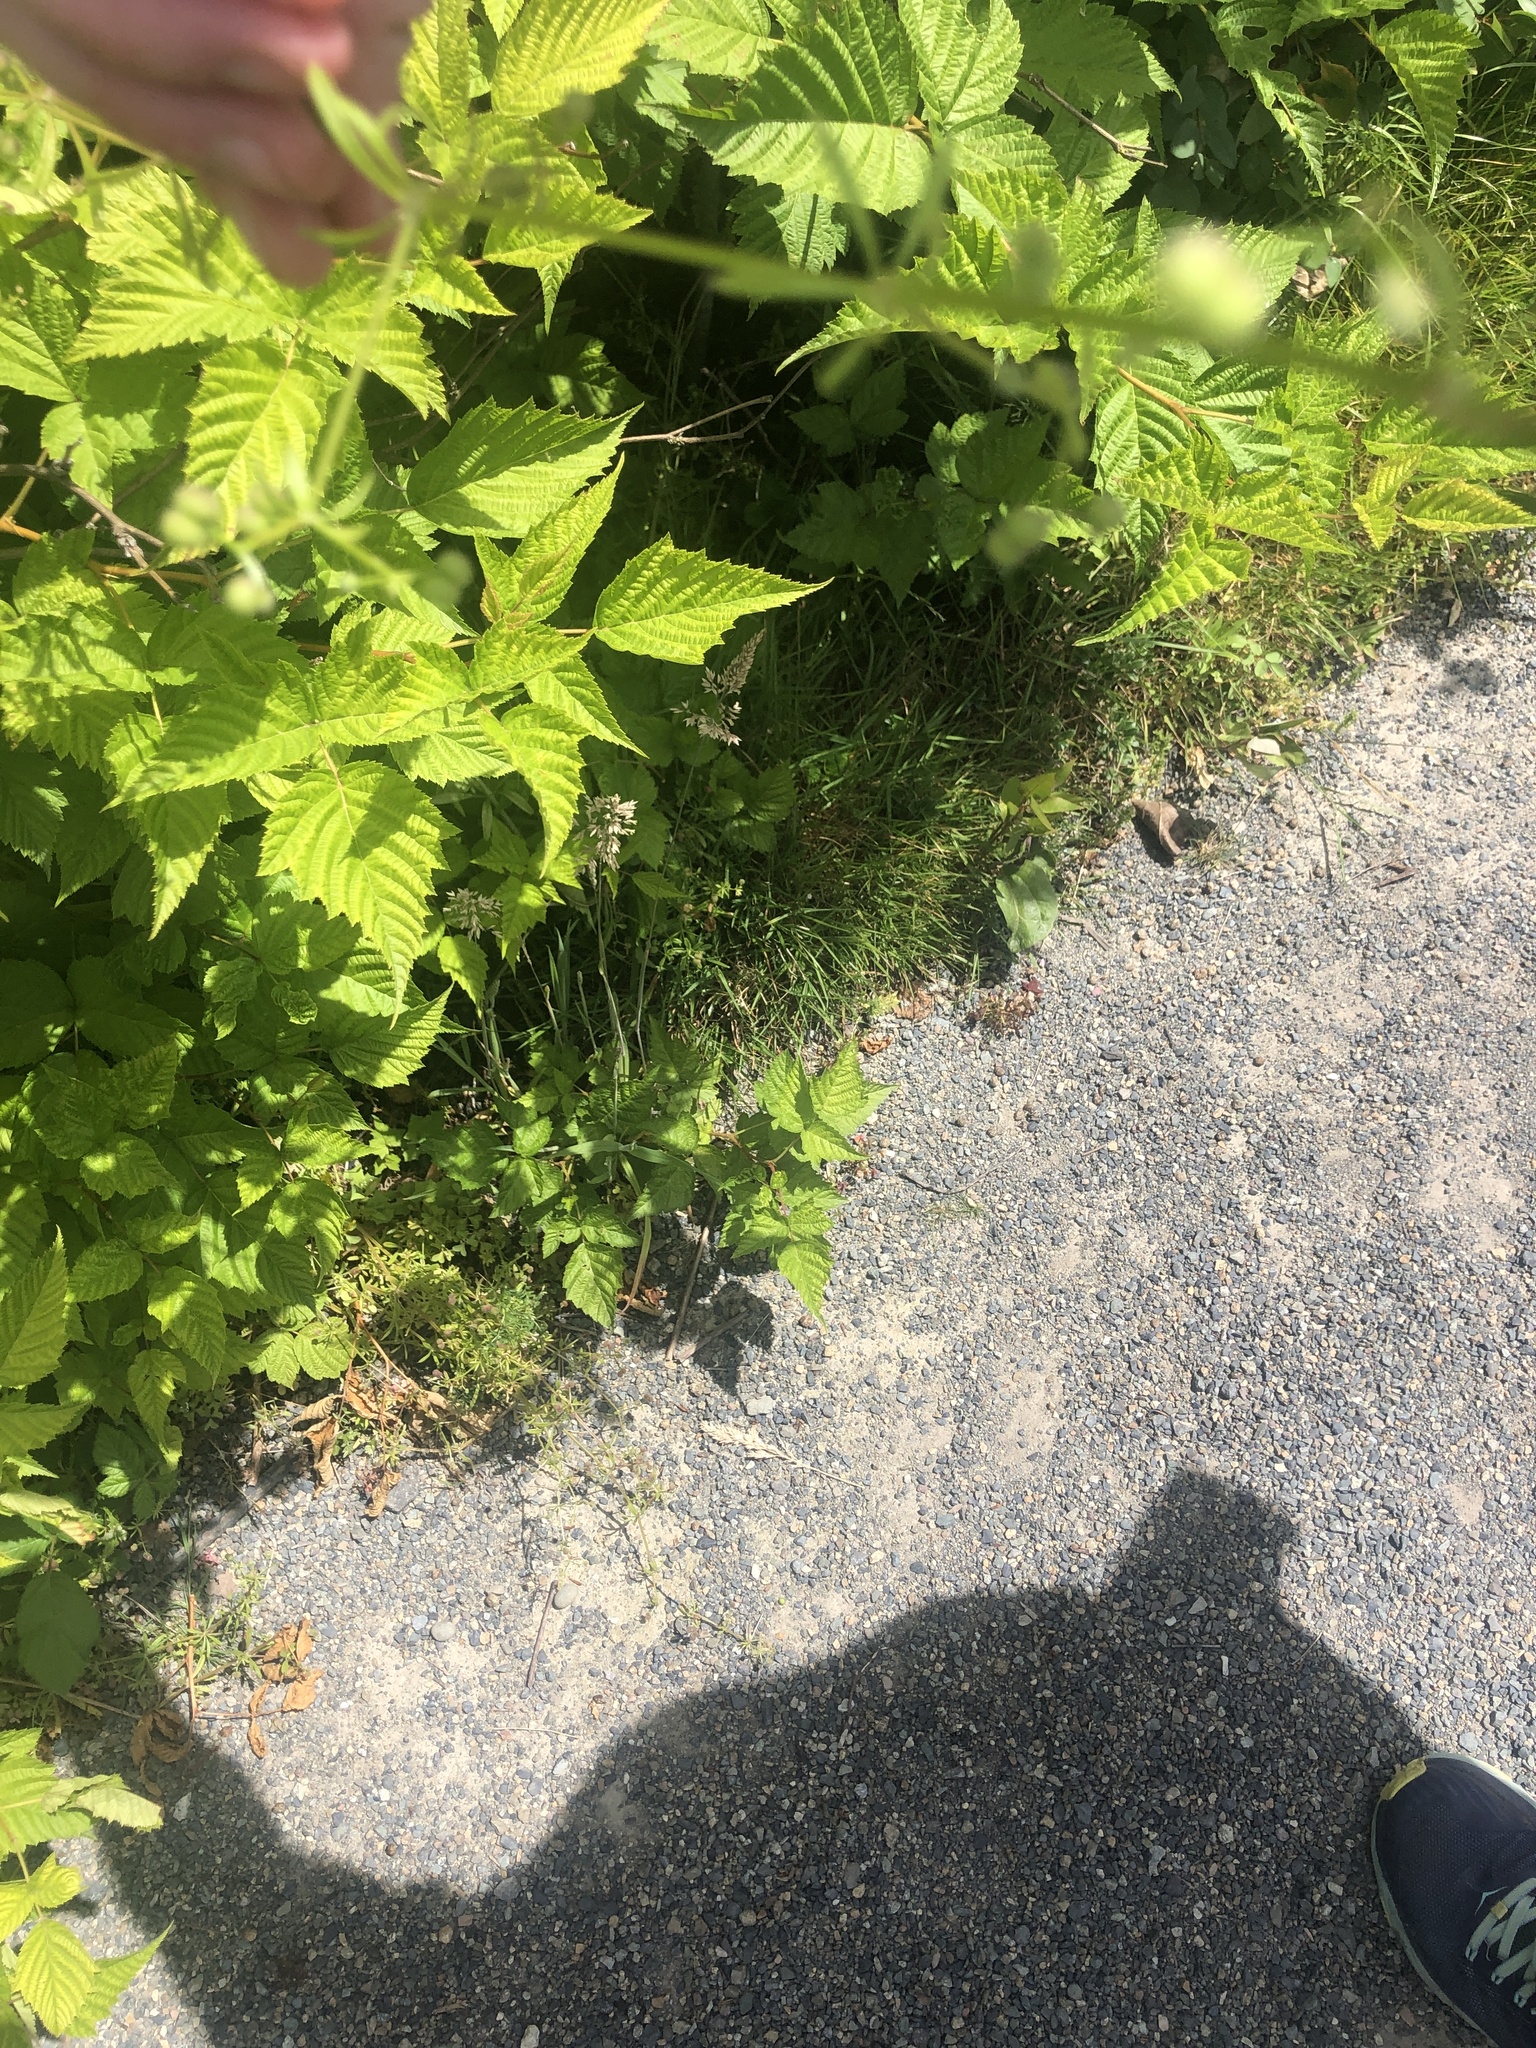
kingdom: Plantae
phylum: Tracheophyta
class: Magnoliopsida
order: Gentianales
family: Rubiaceae
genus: Galium
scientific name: Galium aparine
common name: Cleavers
